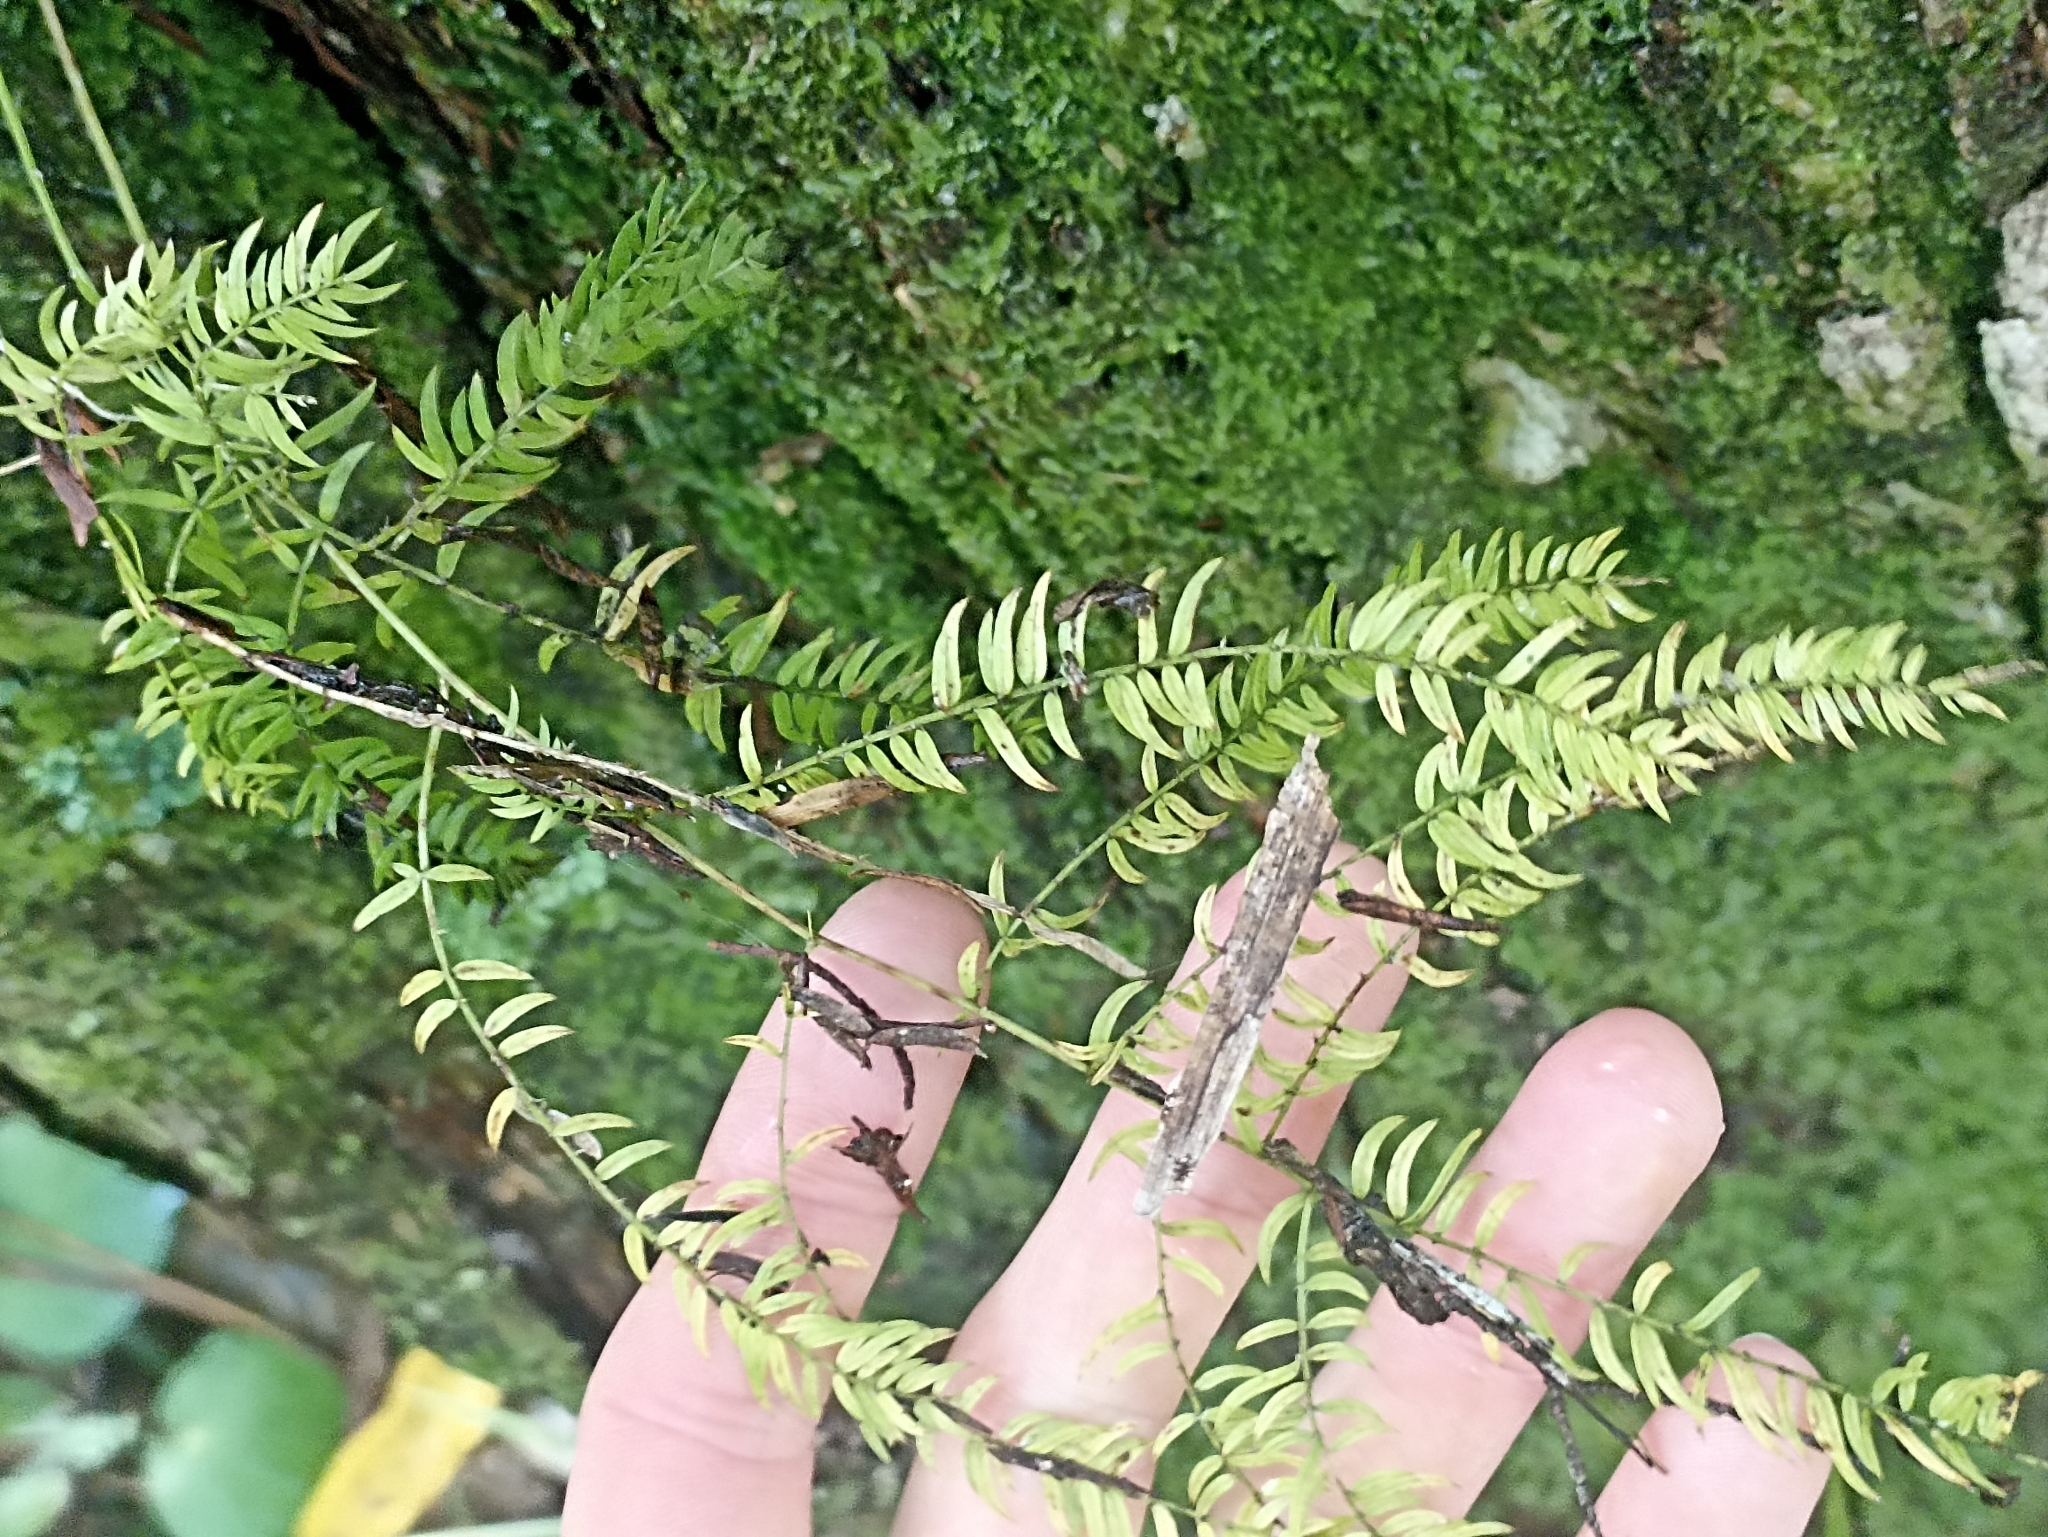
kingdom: Plantae
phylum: Tracheophyta
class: Liliopsida
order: Asparagales
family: Asparagaceae
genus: Asparagus
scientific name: Asparagus scandens
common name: Asparagus-fern
